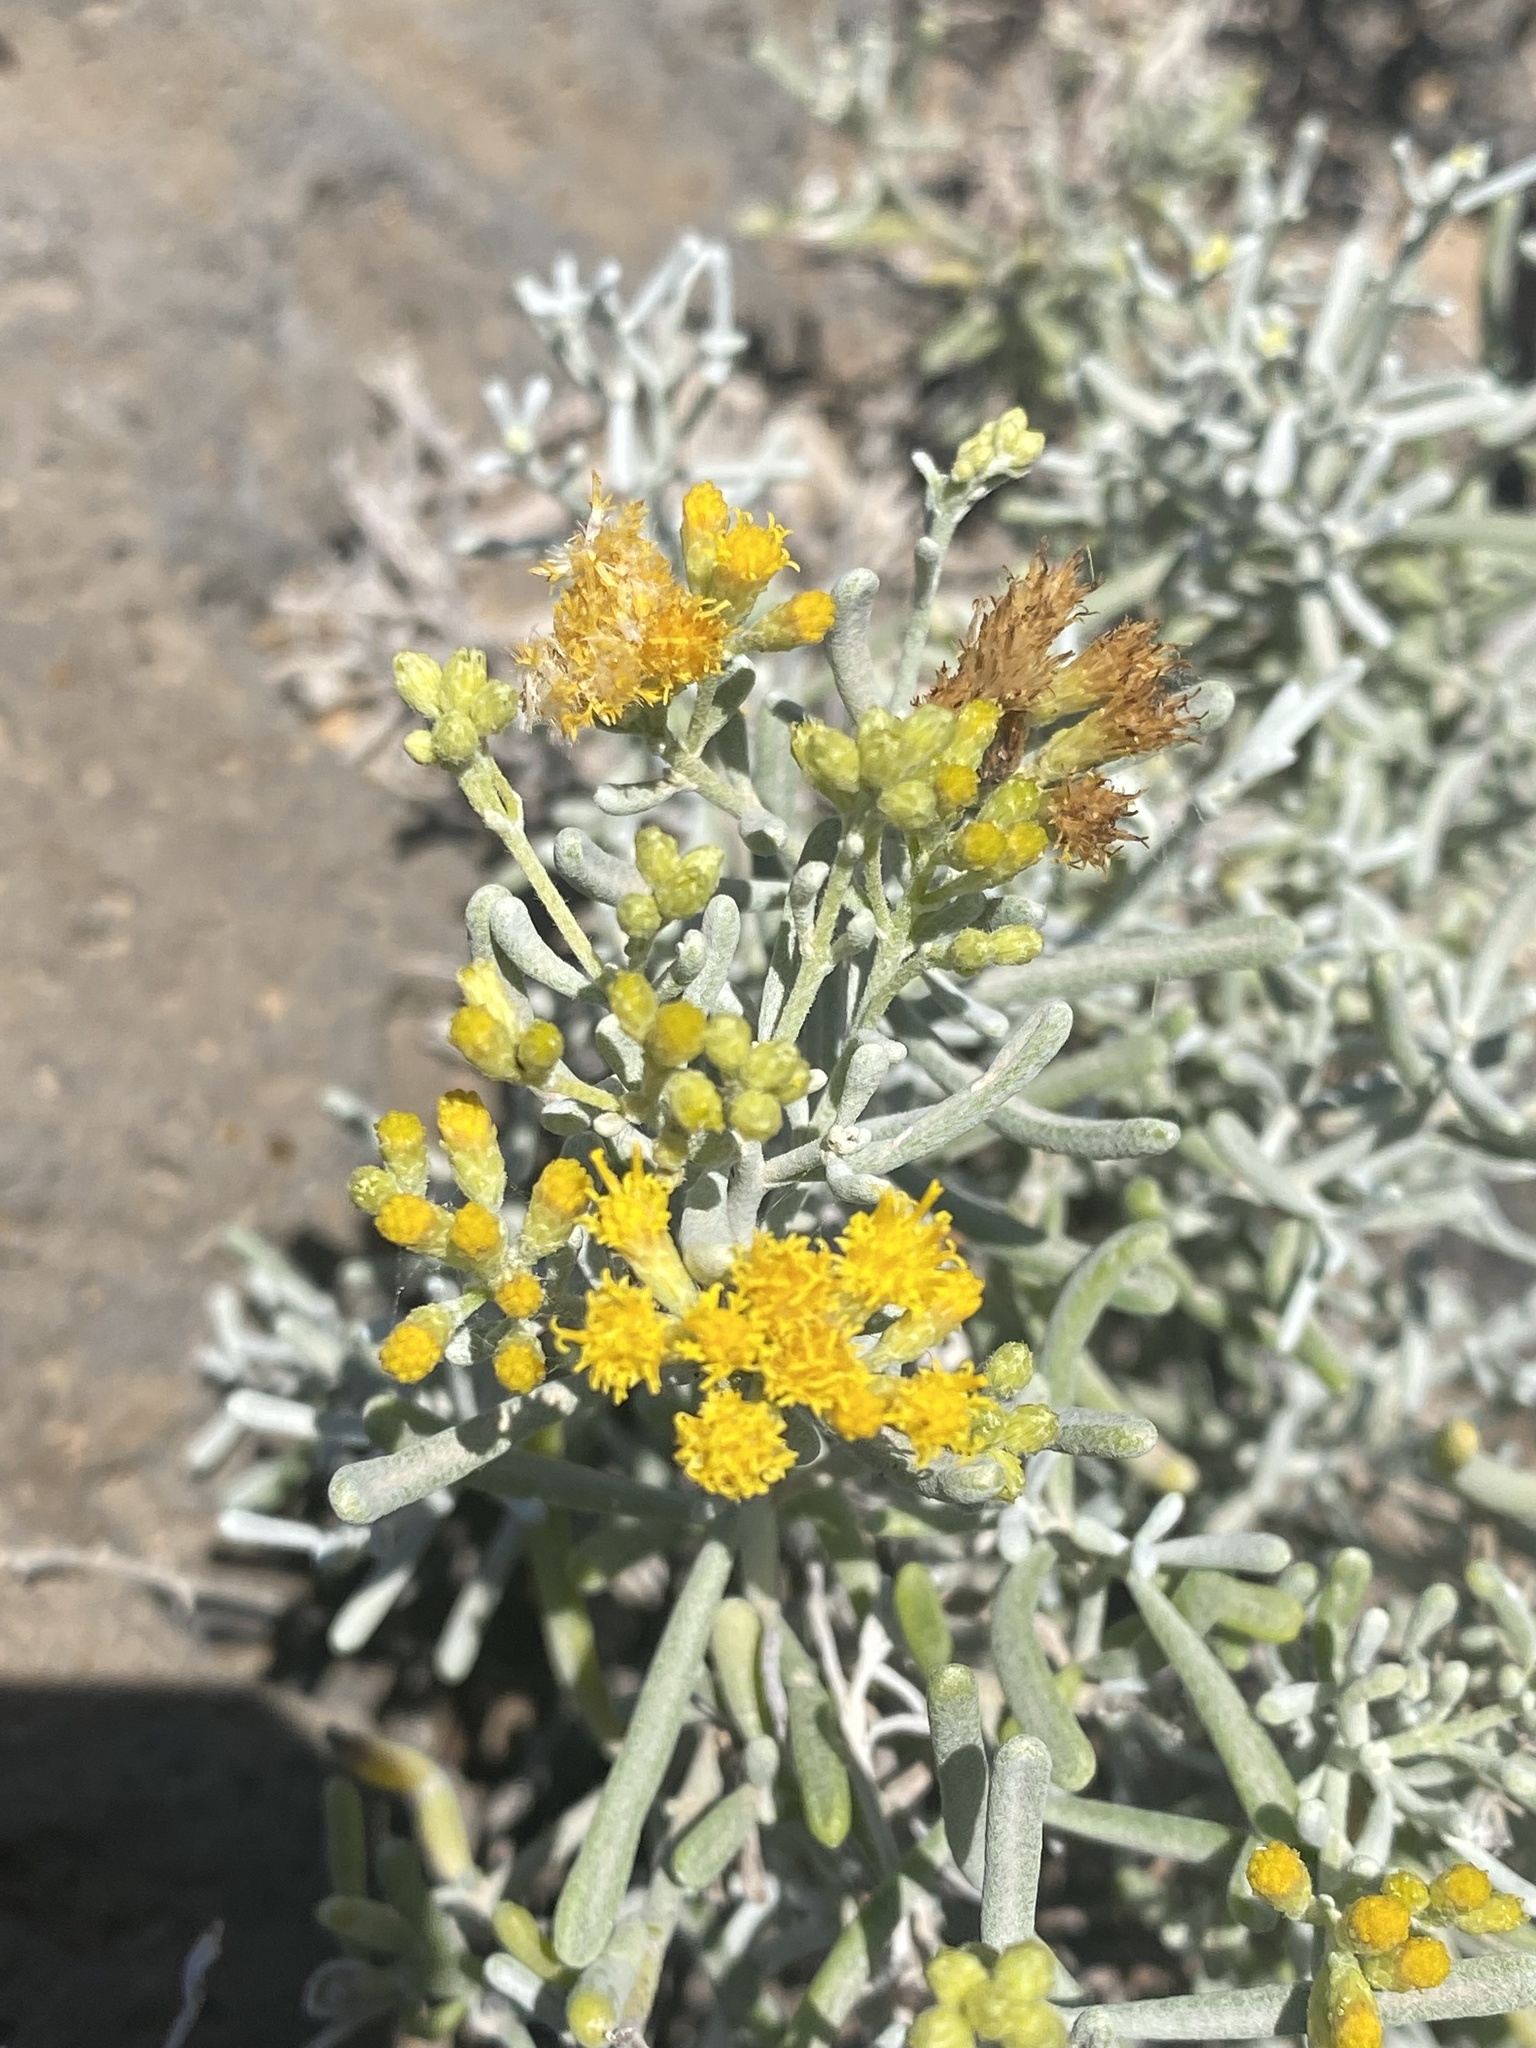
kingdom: Plantae
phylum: Tracheophyta
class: Magnoliopsida
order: Asterales
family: Asteraceae
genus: Schizogyne
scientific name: Schizogyne sericea
